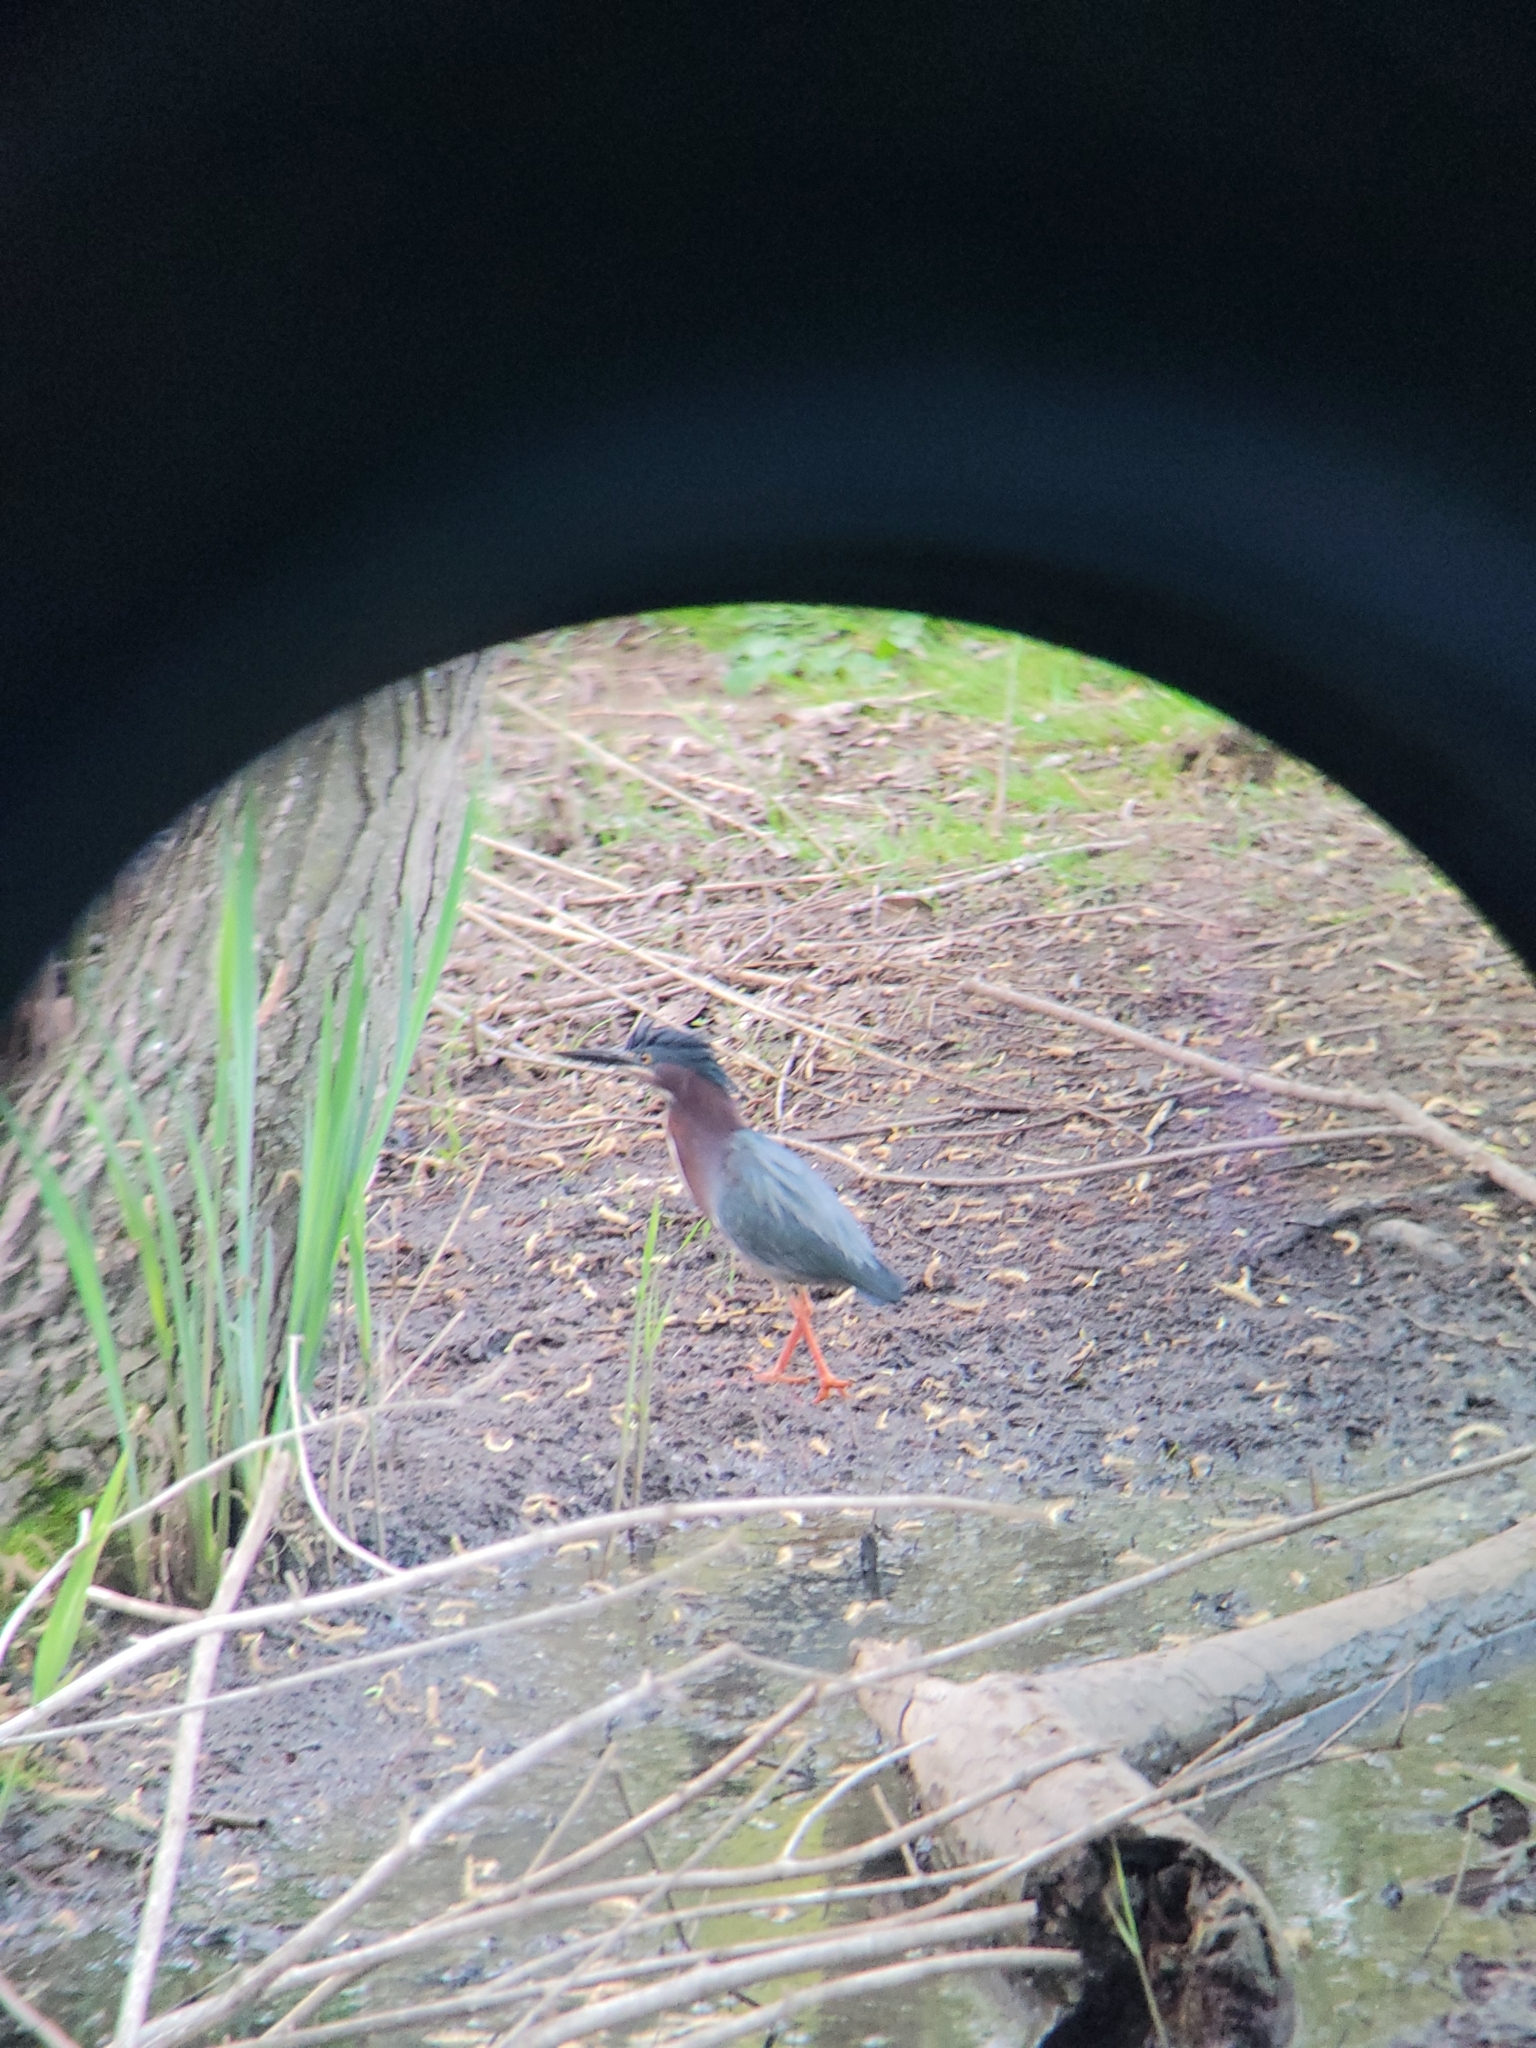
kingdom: Animalia
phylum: Chordata
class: Aves
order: Pelecaniformes
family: Ardeidae
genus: Butorides
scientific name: Butorides virescens
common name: Green heron
